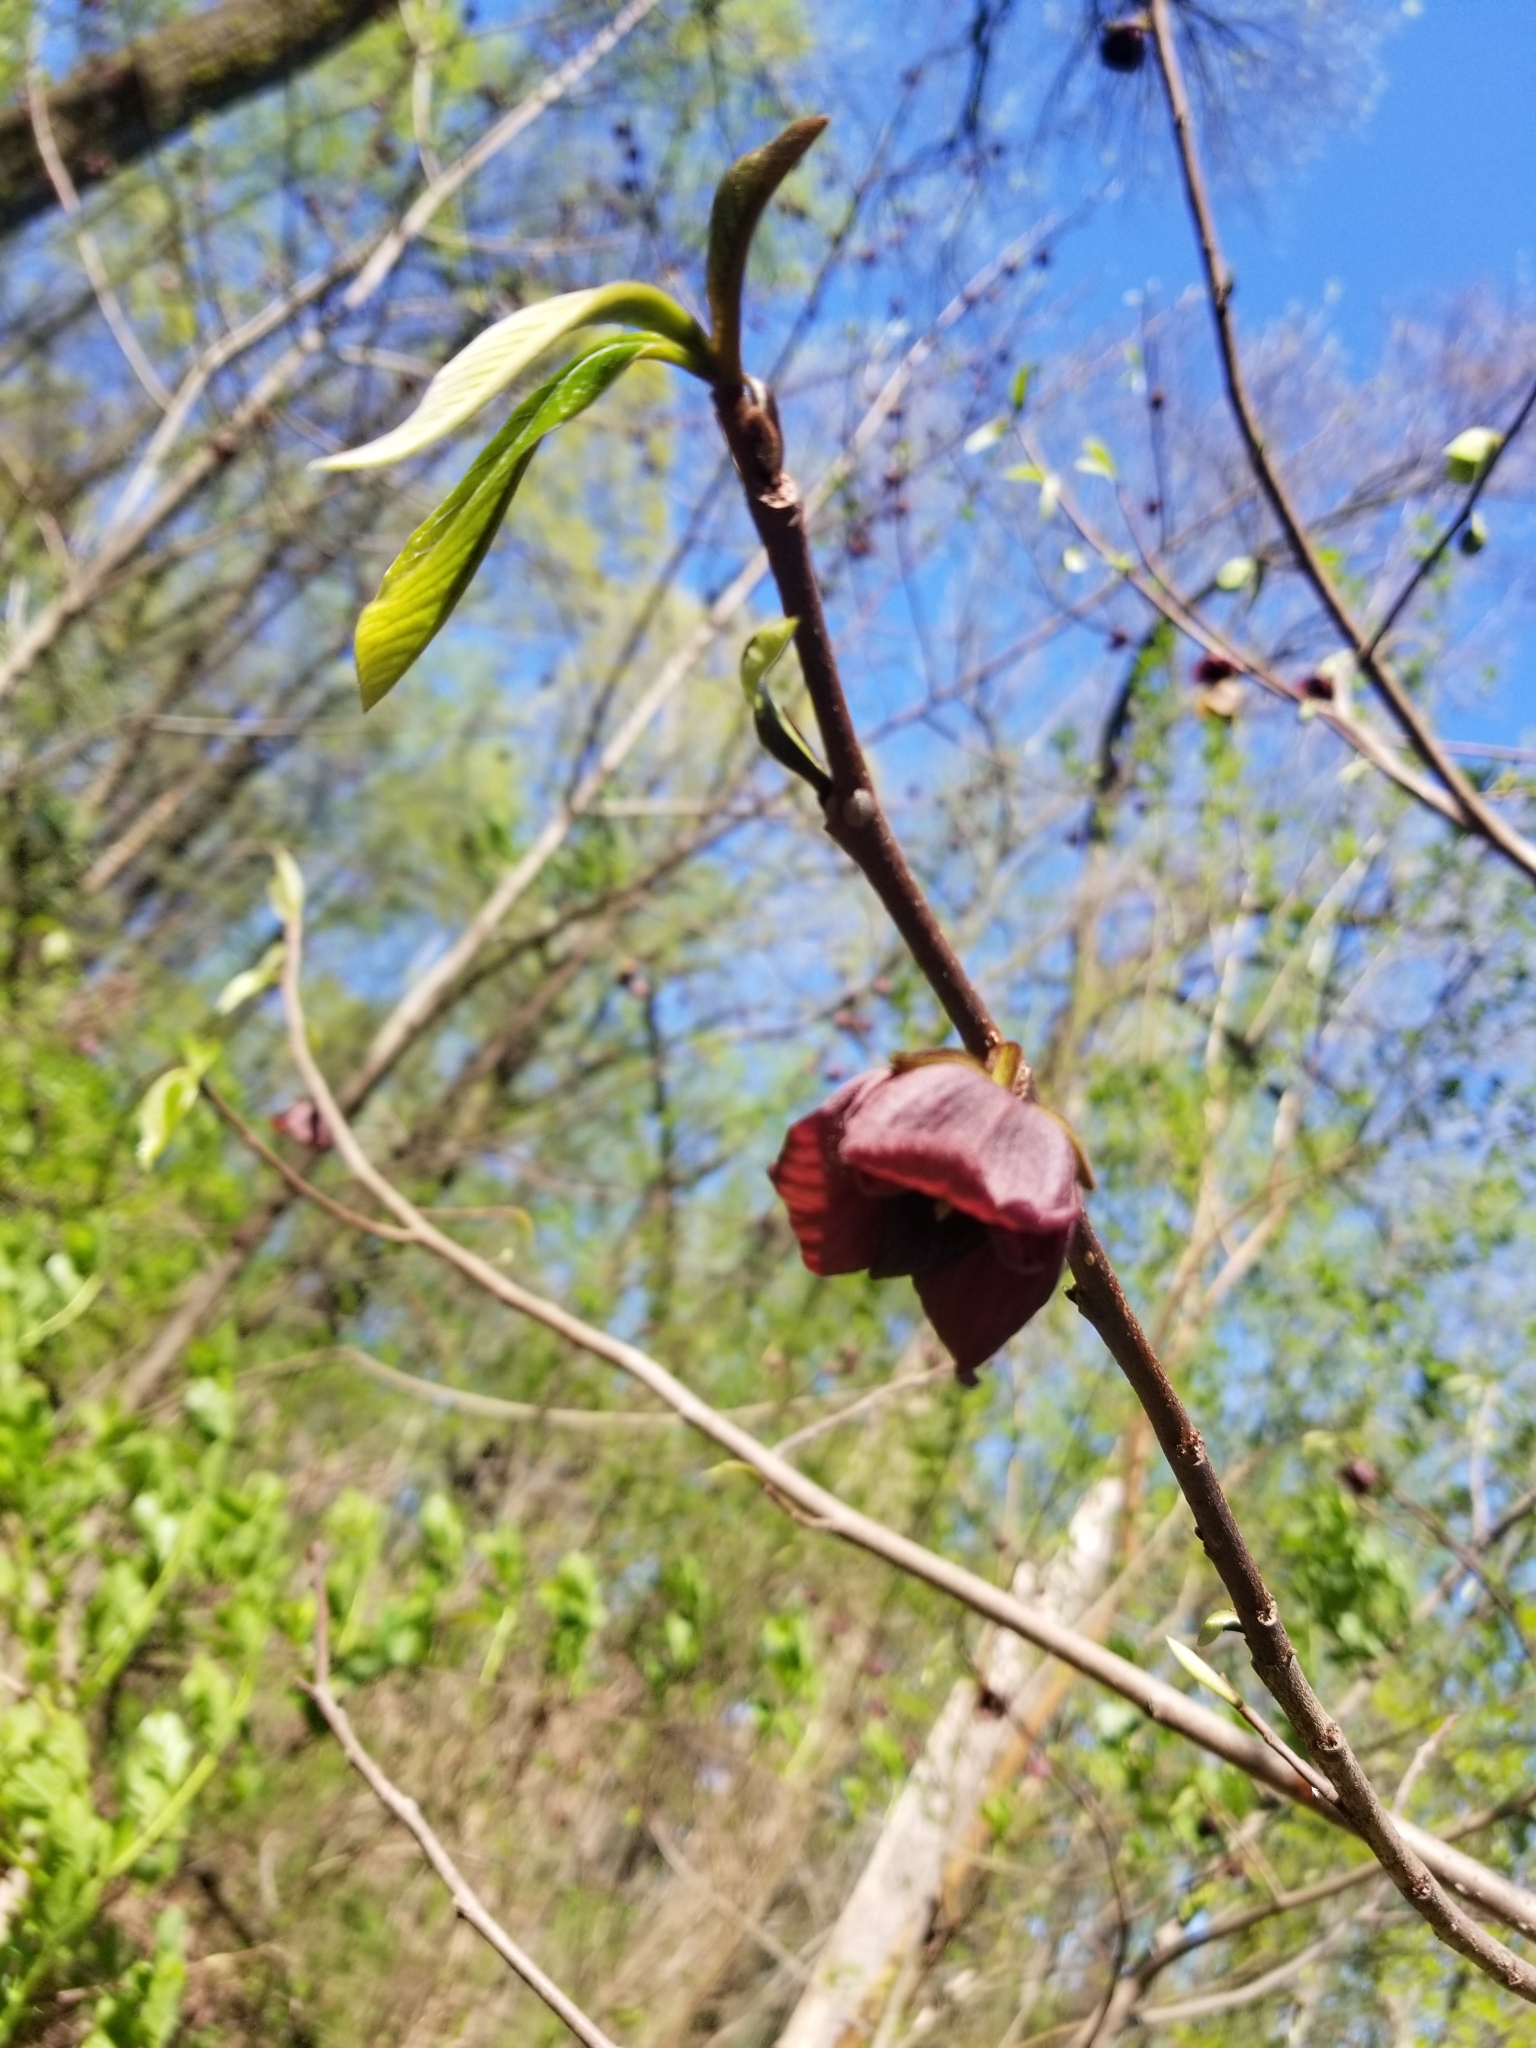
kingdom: Plantae
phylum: Tracheophyta
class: Magnoliopsida
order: Magnoliales
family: Annonaceae
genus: Asimina
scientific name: Asimina triloba
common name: Dog-banana
